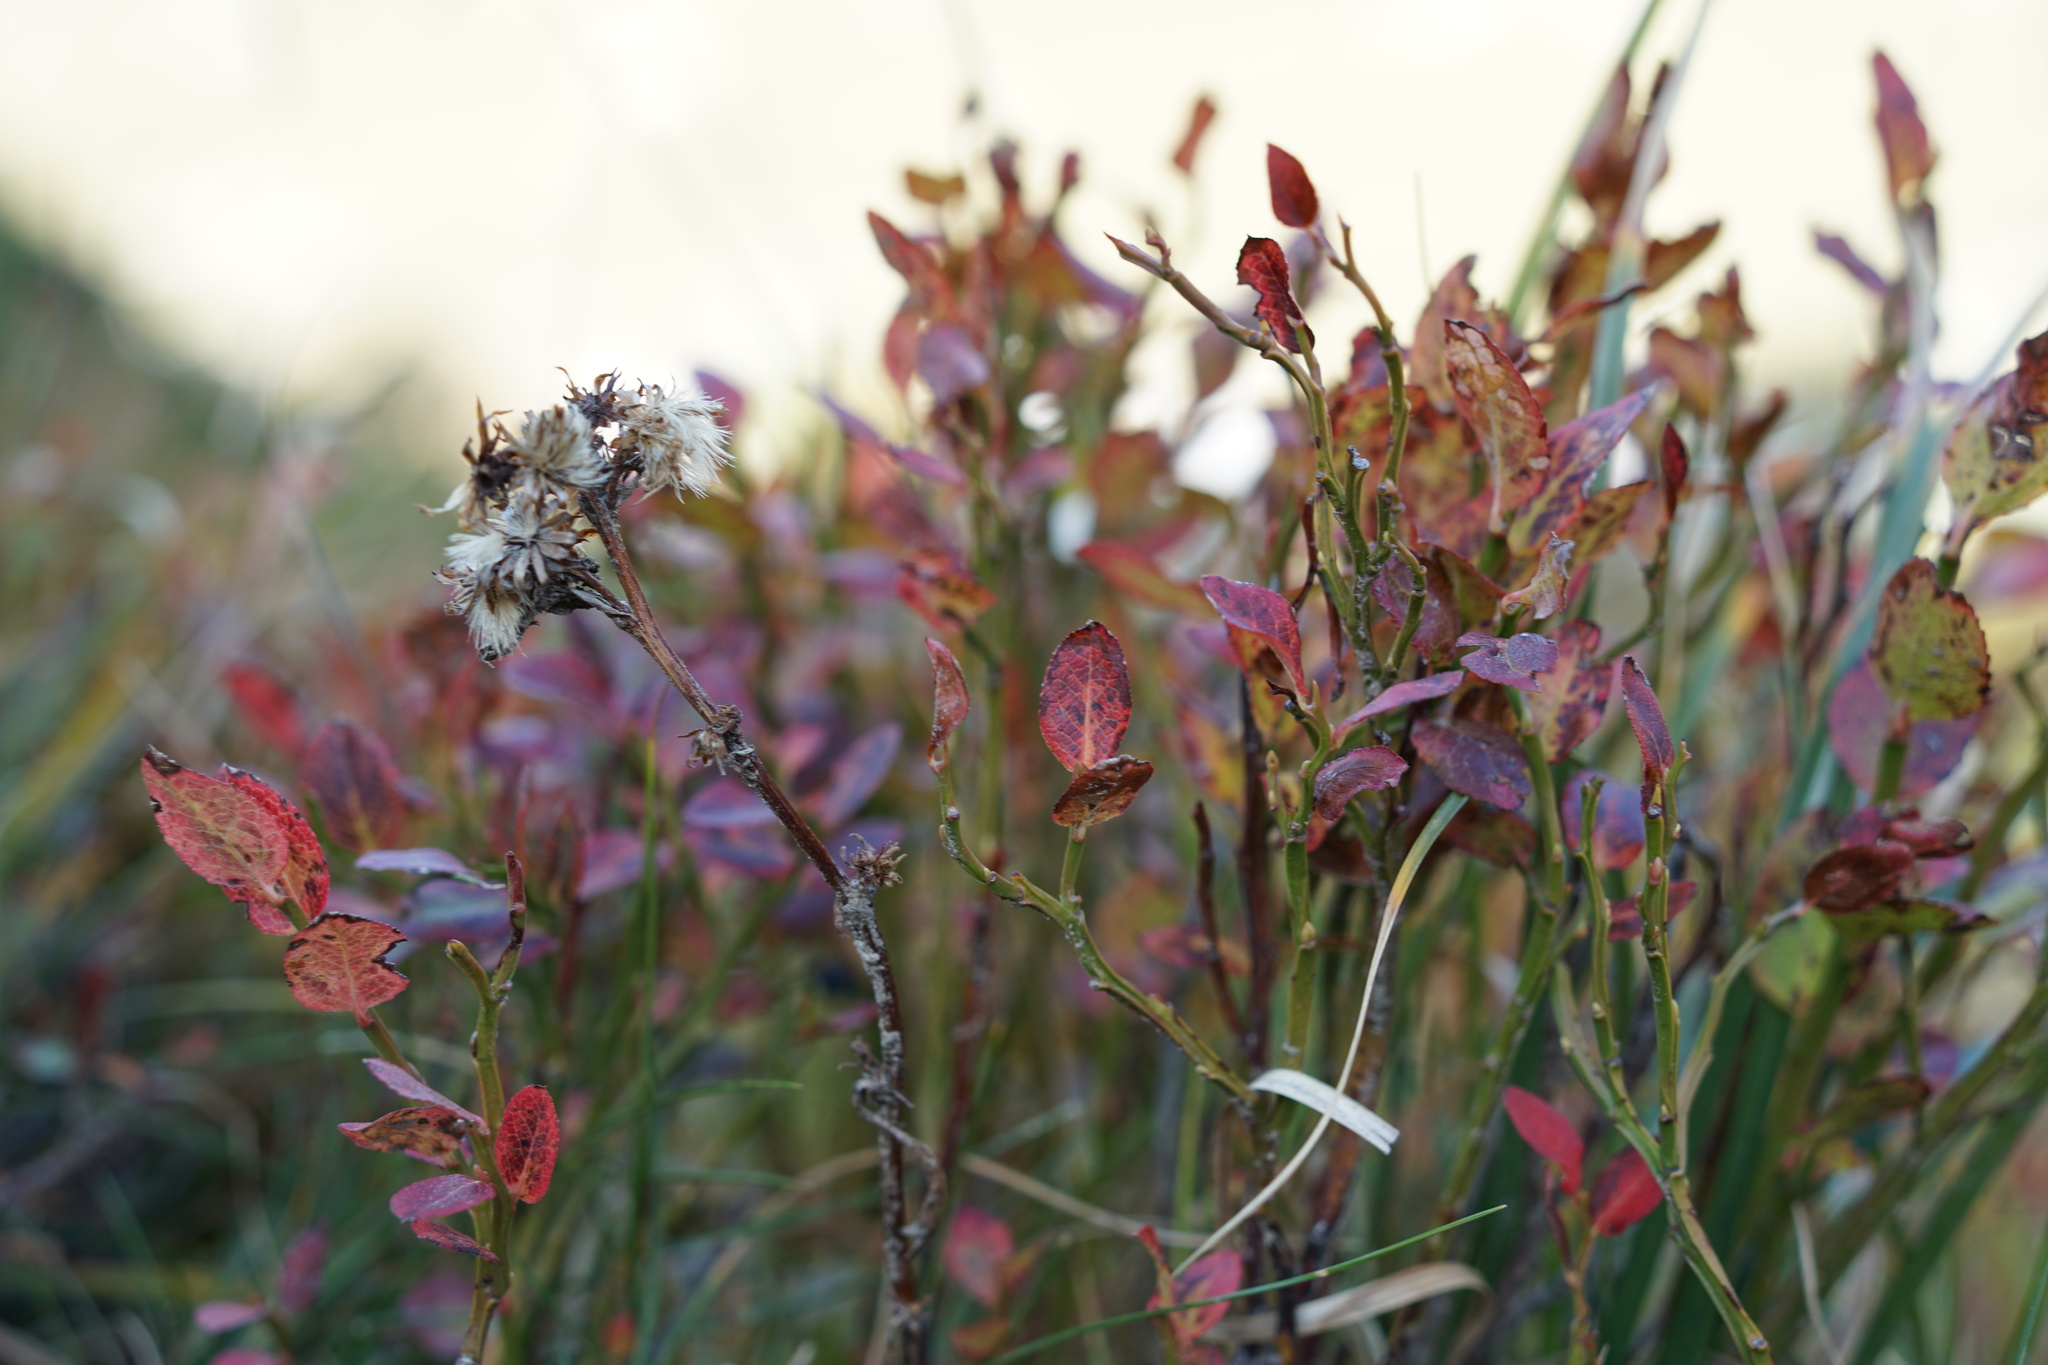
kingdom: Plantae
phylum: Tracheophyta
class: Magnoliopsida
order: Ericales
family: Ericaceae
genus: Vaccinium
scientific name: Vaccinium myrtillus
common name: Bilberry
